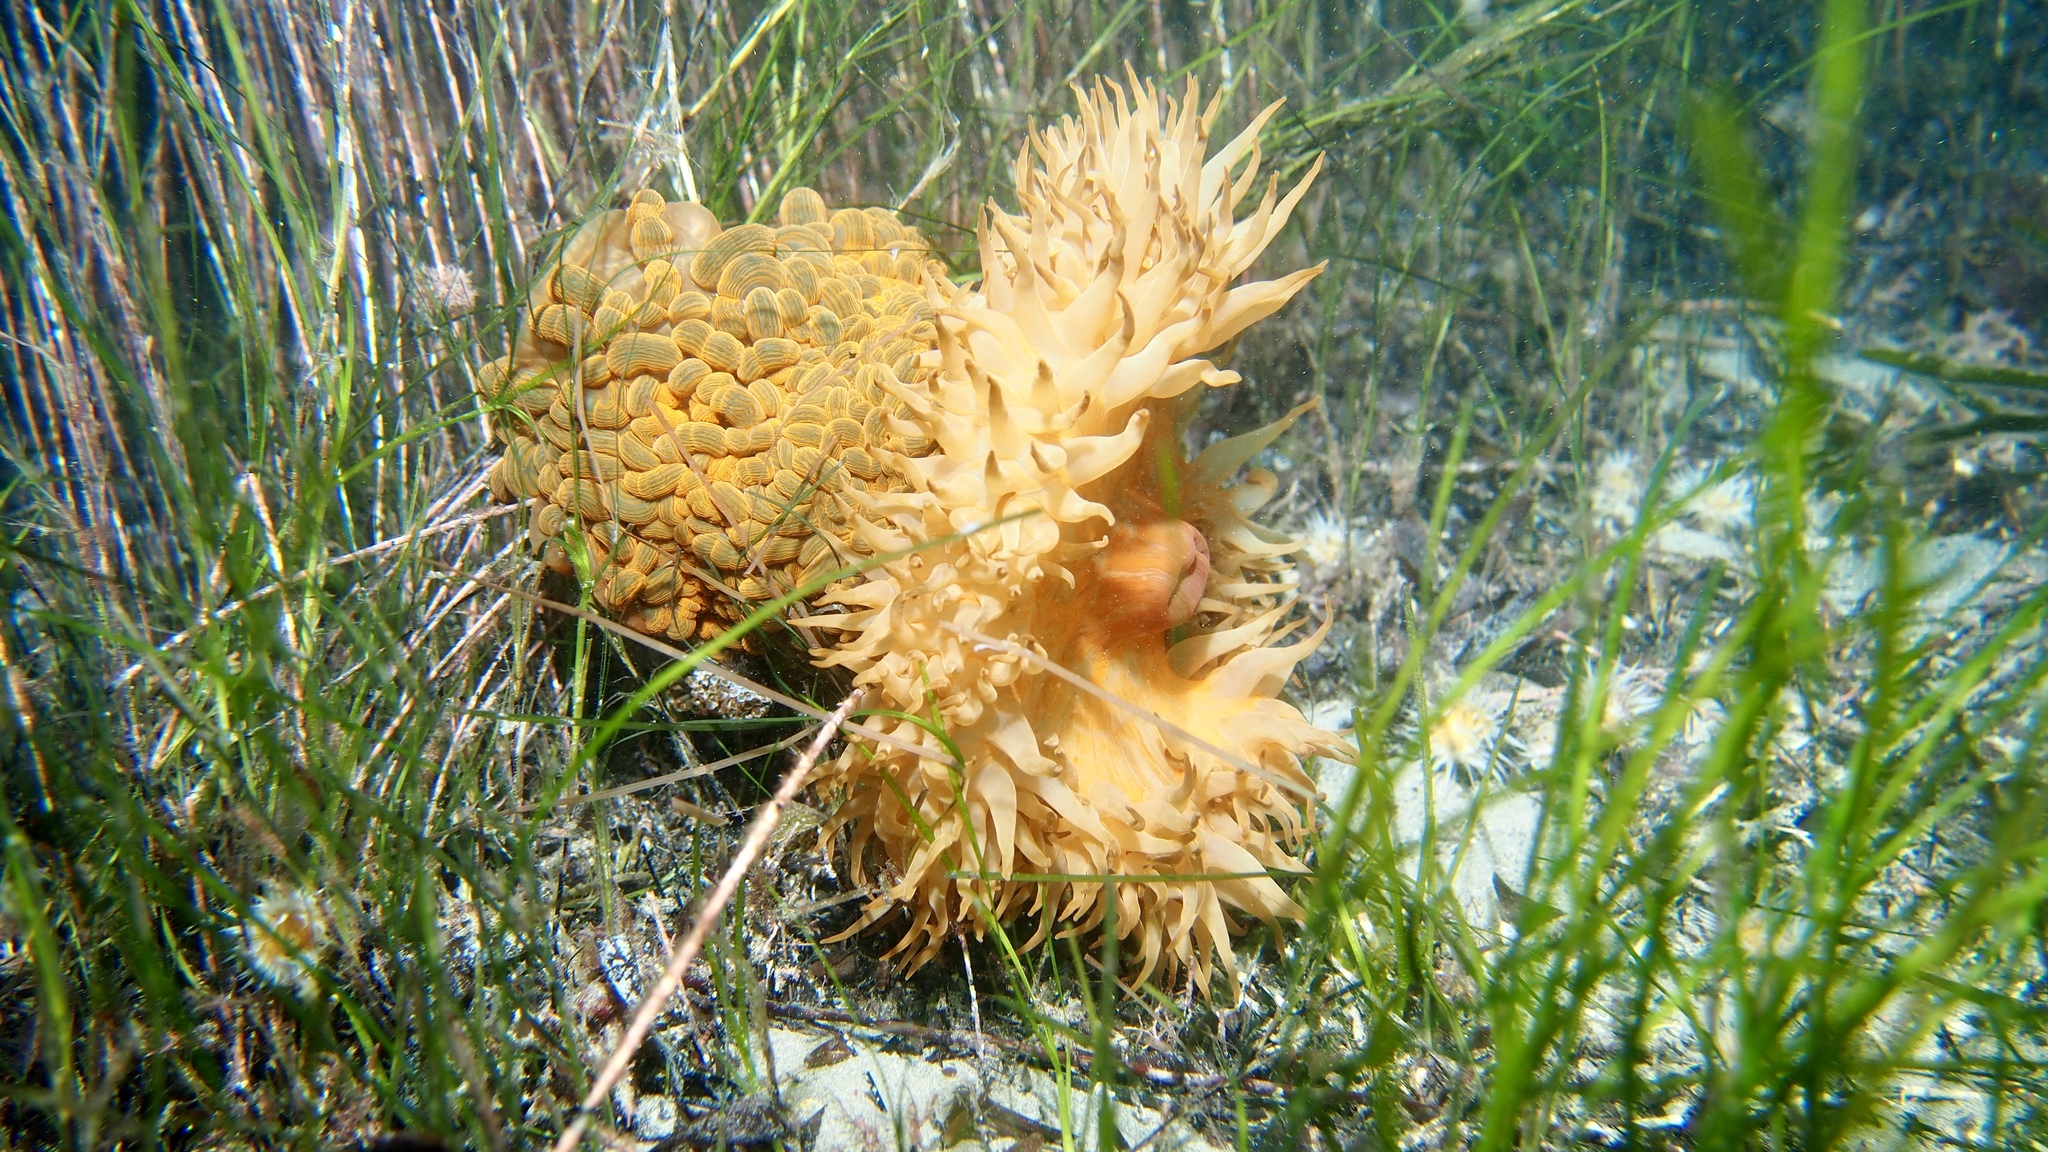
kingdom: Animalia
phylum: Cnidaria
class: Anthozoa
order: Actiniaria
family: Actiniidae
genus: Phlyctenactis
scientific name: Phlyctenactis tuberculosa
